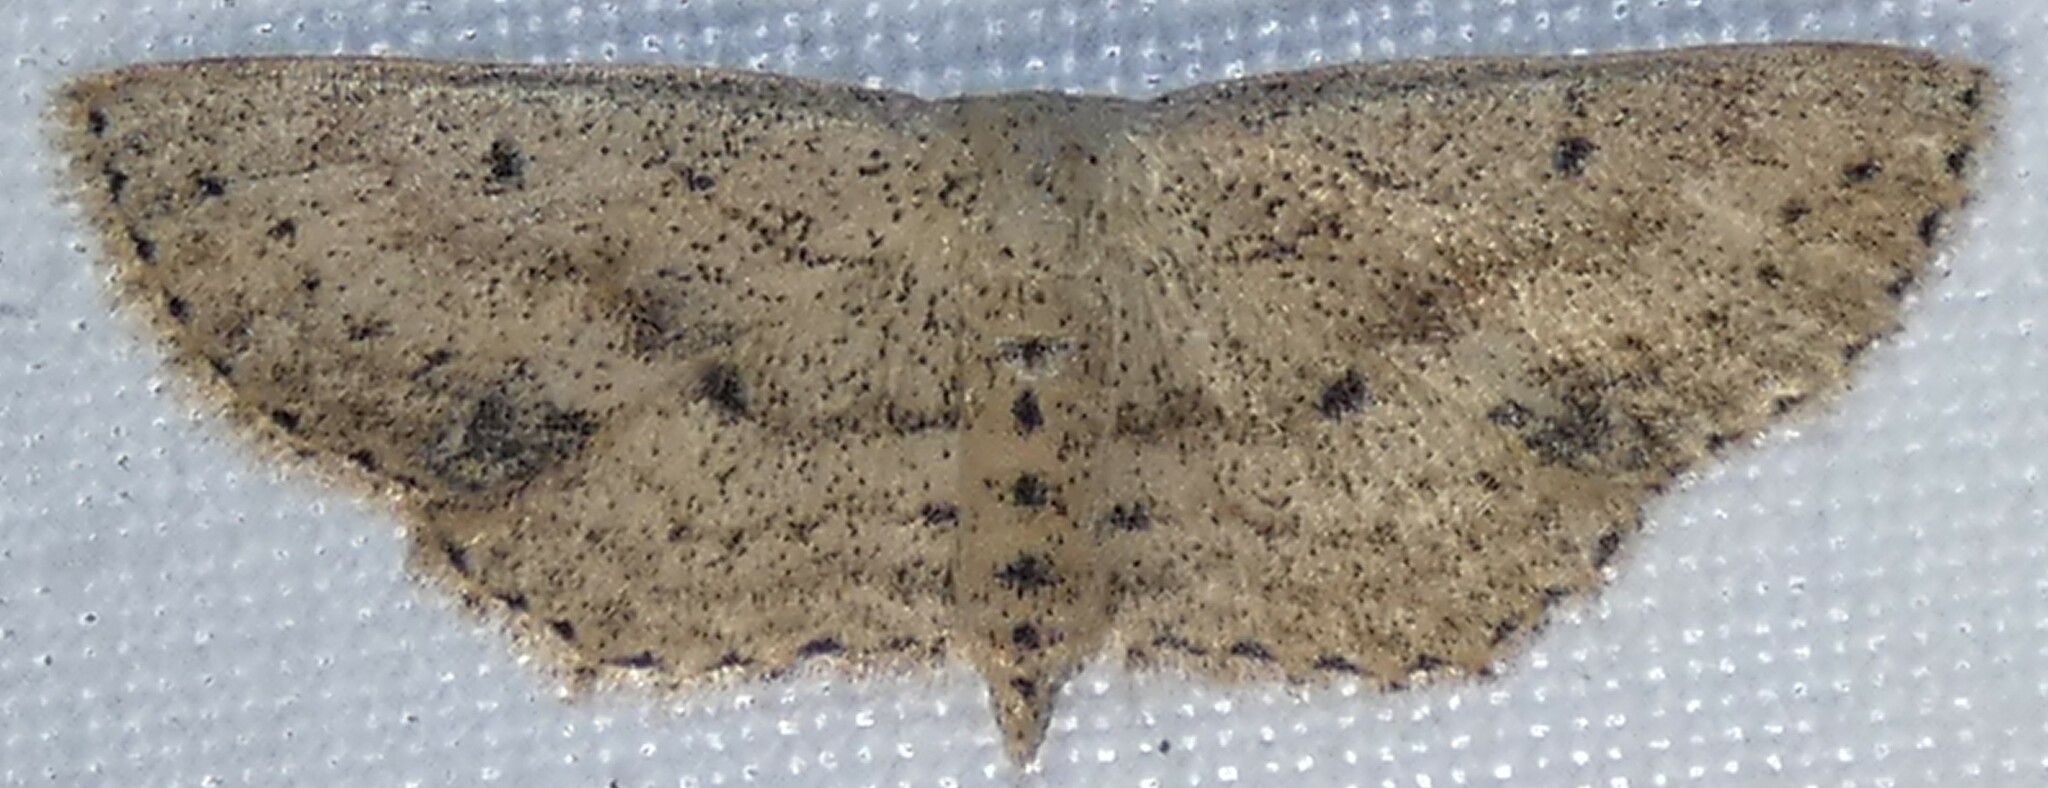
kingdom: Animalia
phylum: Arthropoda
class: Insecta
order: Lepidoptera
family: Geometridae
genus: Scopula
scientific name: Scopula aemulata
